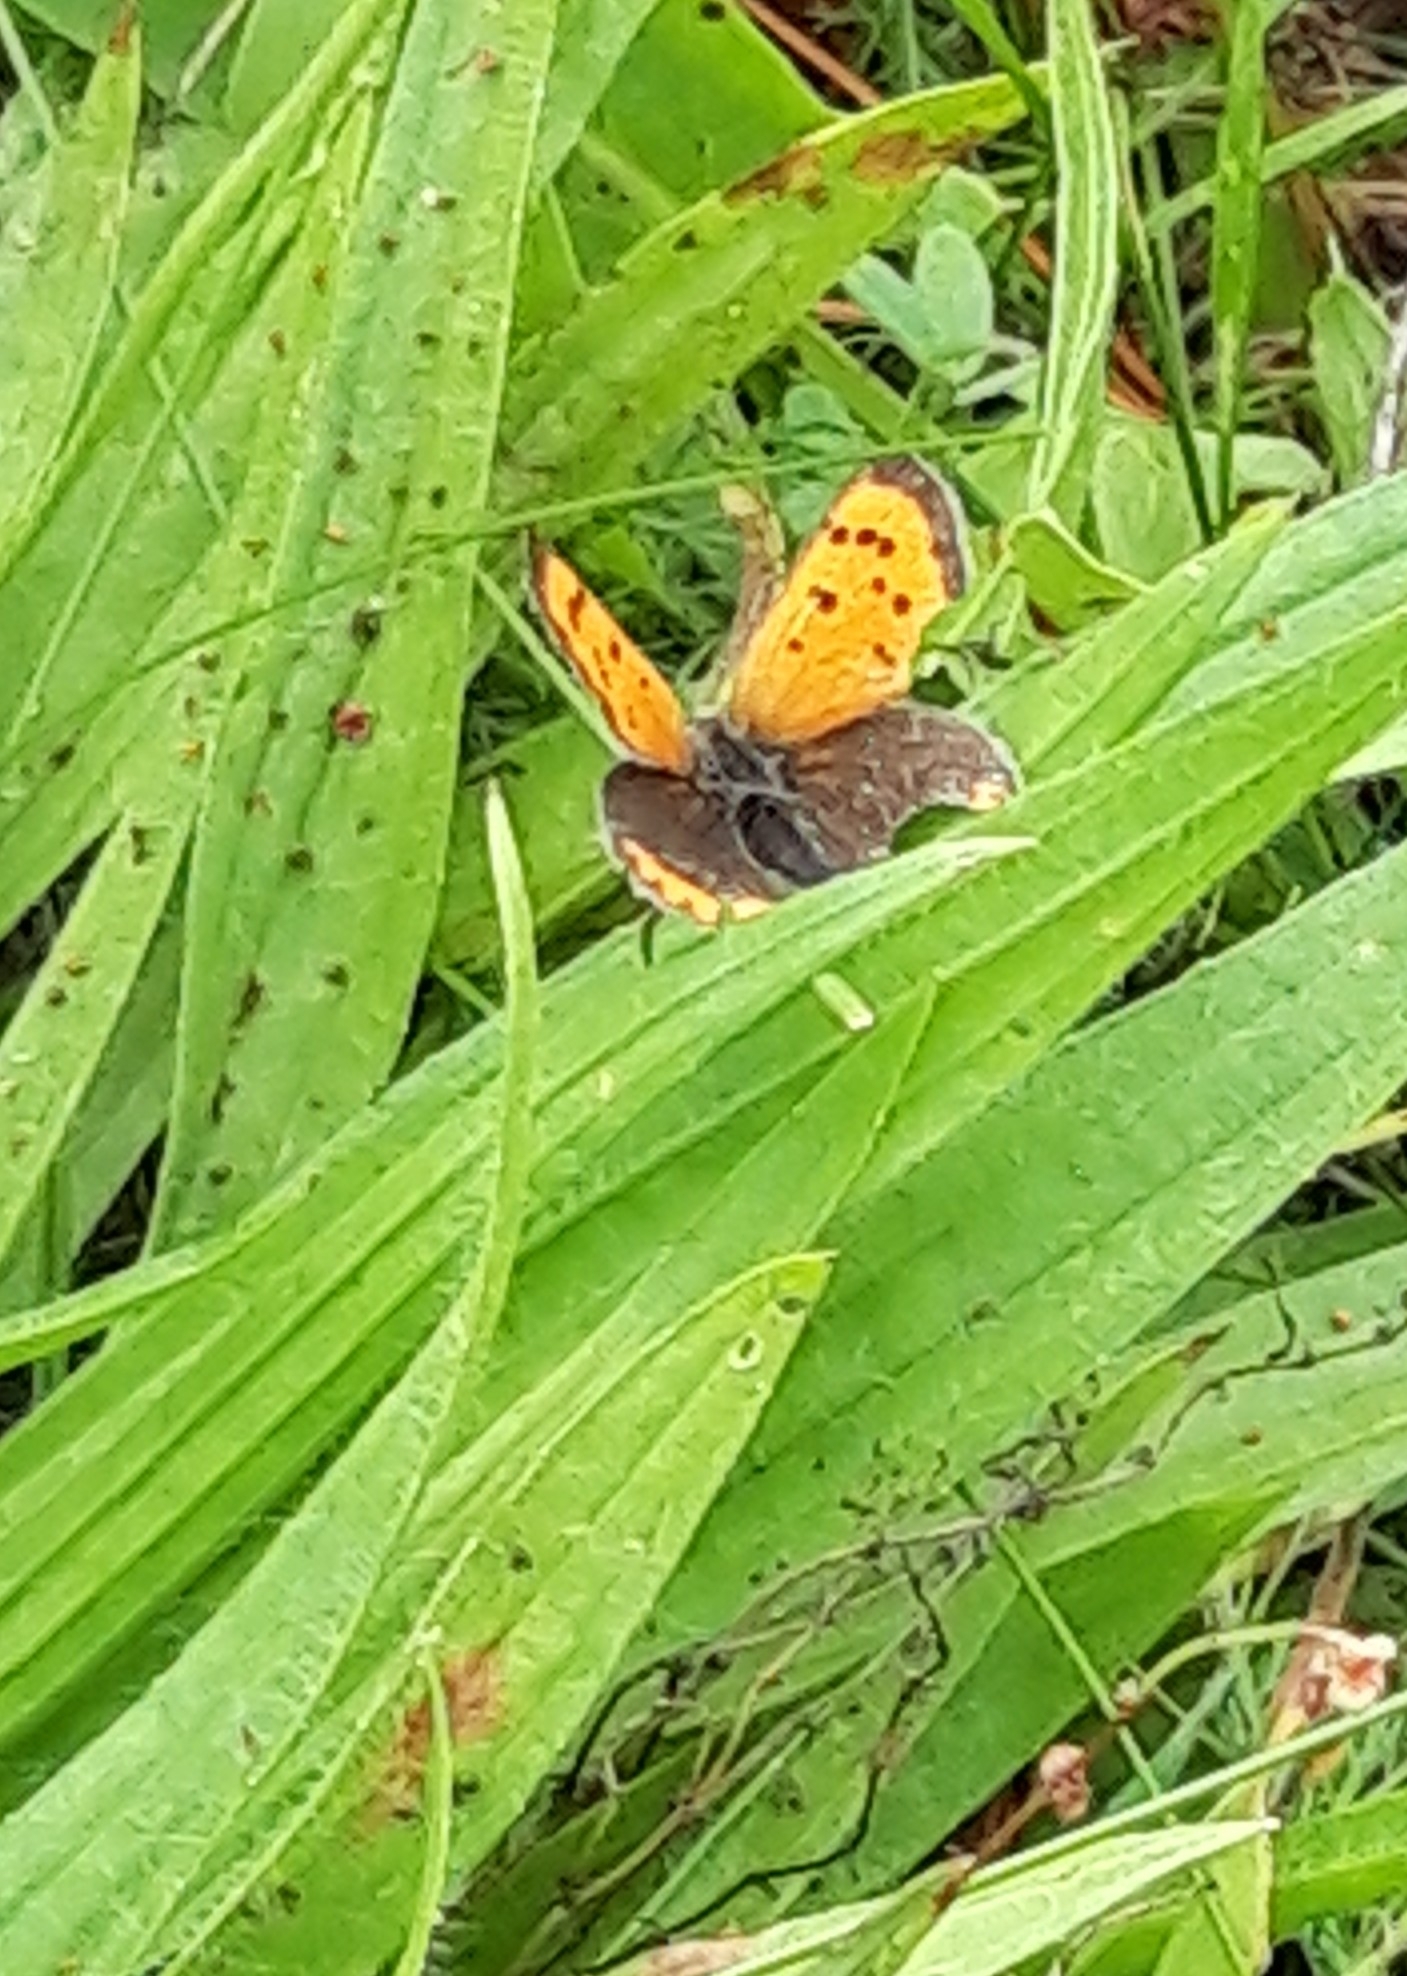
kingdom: Animalia
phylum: Arthropoda
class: Insecta
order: Lepidoptera
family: Lycaenidae
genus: Lycaena
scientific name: Lycaena phlaeas
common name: Small copper
